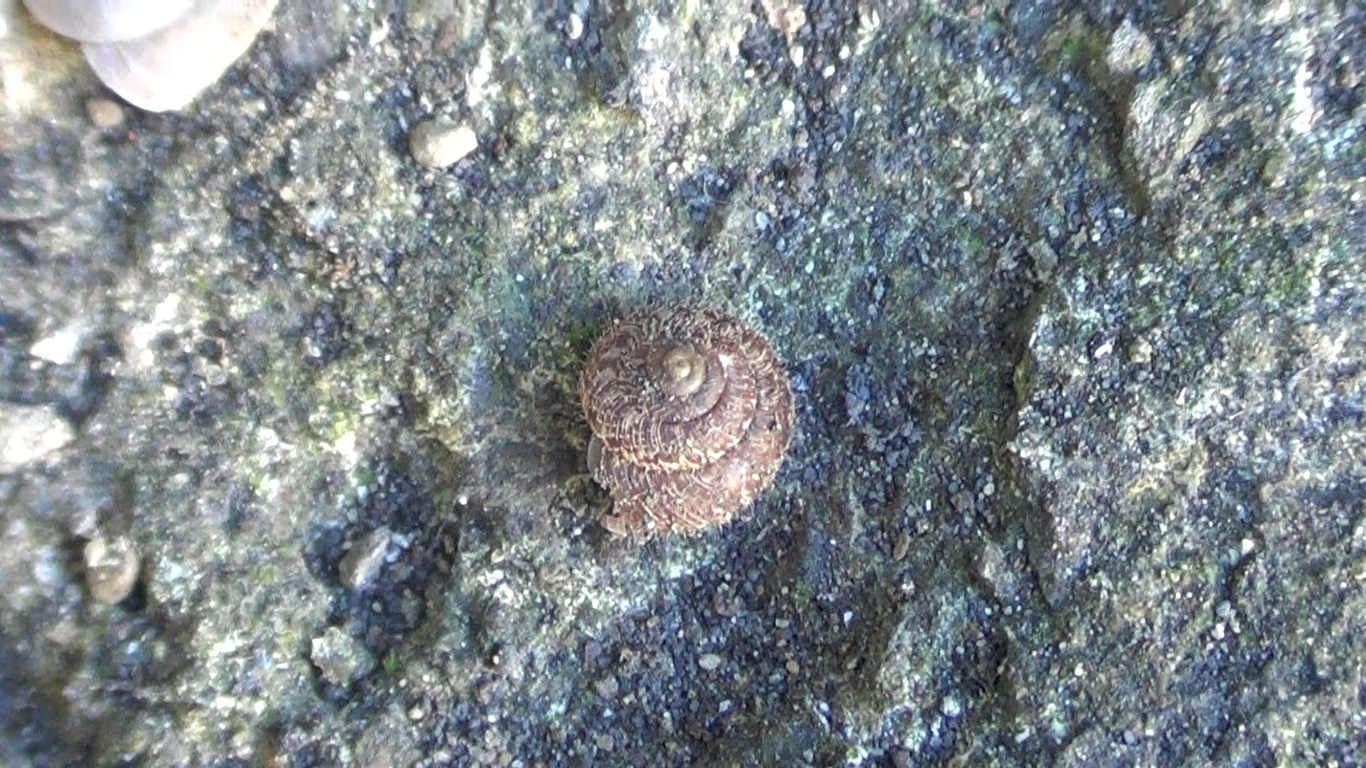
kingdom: Animalia
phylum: Mollusca
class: Gastropoda
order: Stylommatophora
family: Geomitridae
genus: Xerotricha
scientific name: Xerotricha conspurcata
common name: Snail
